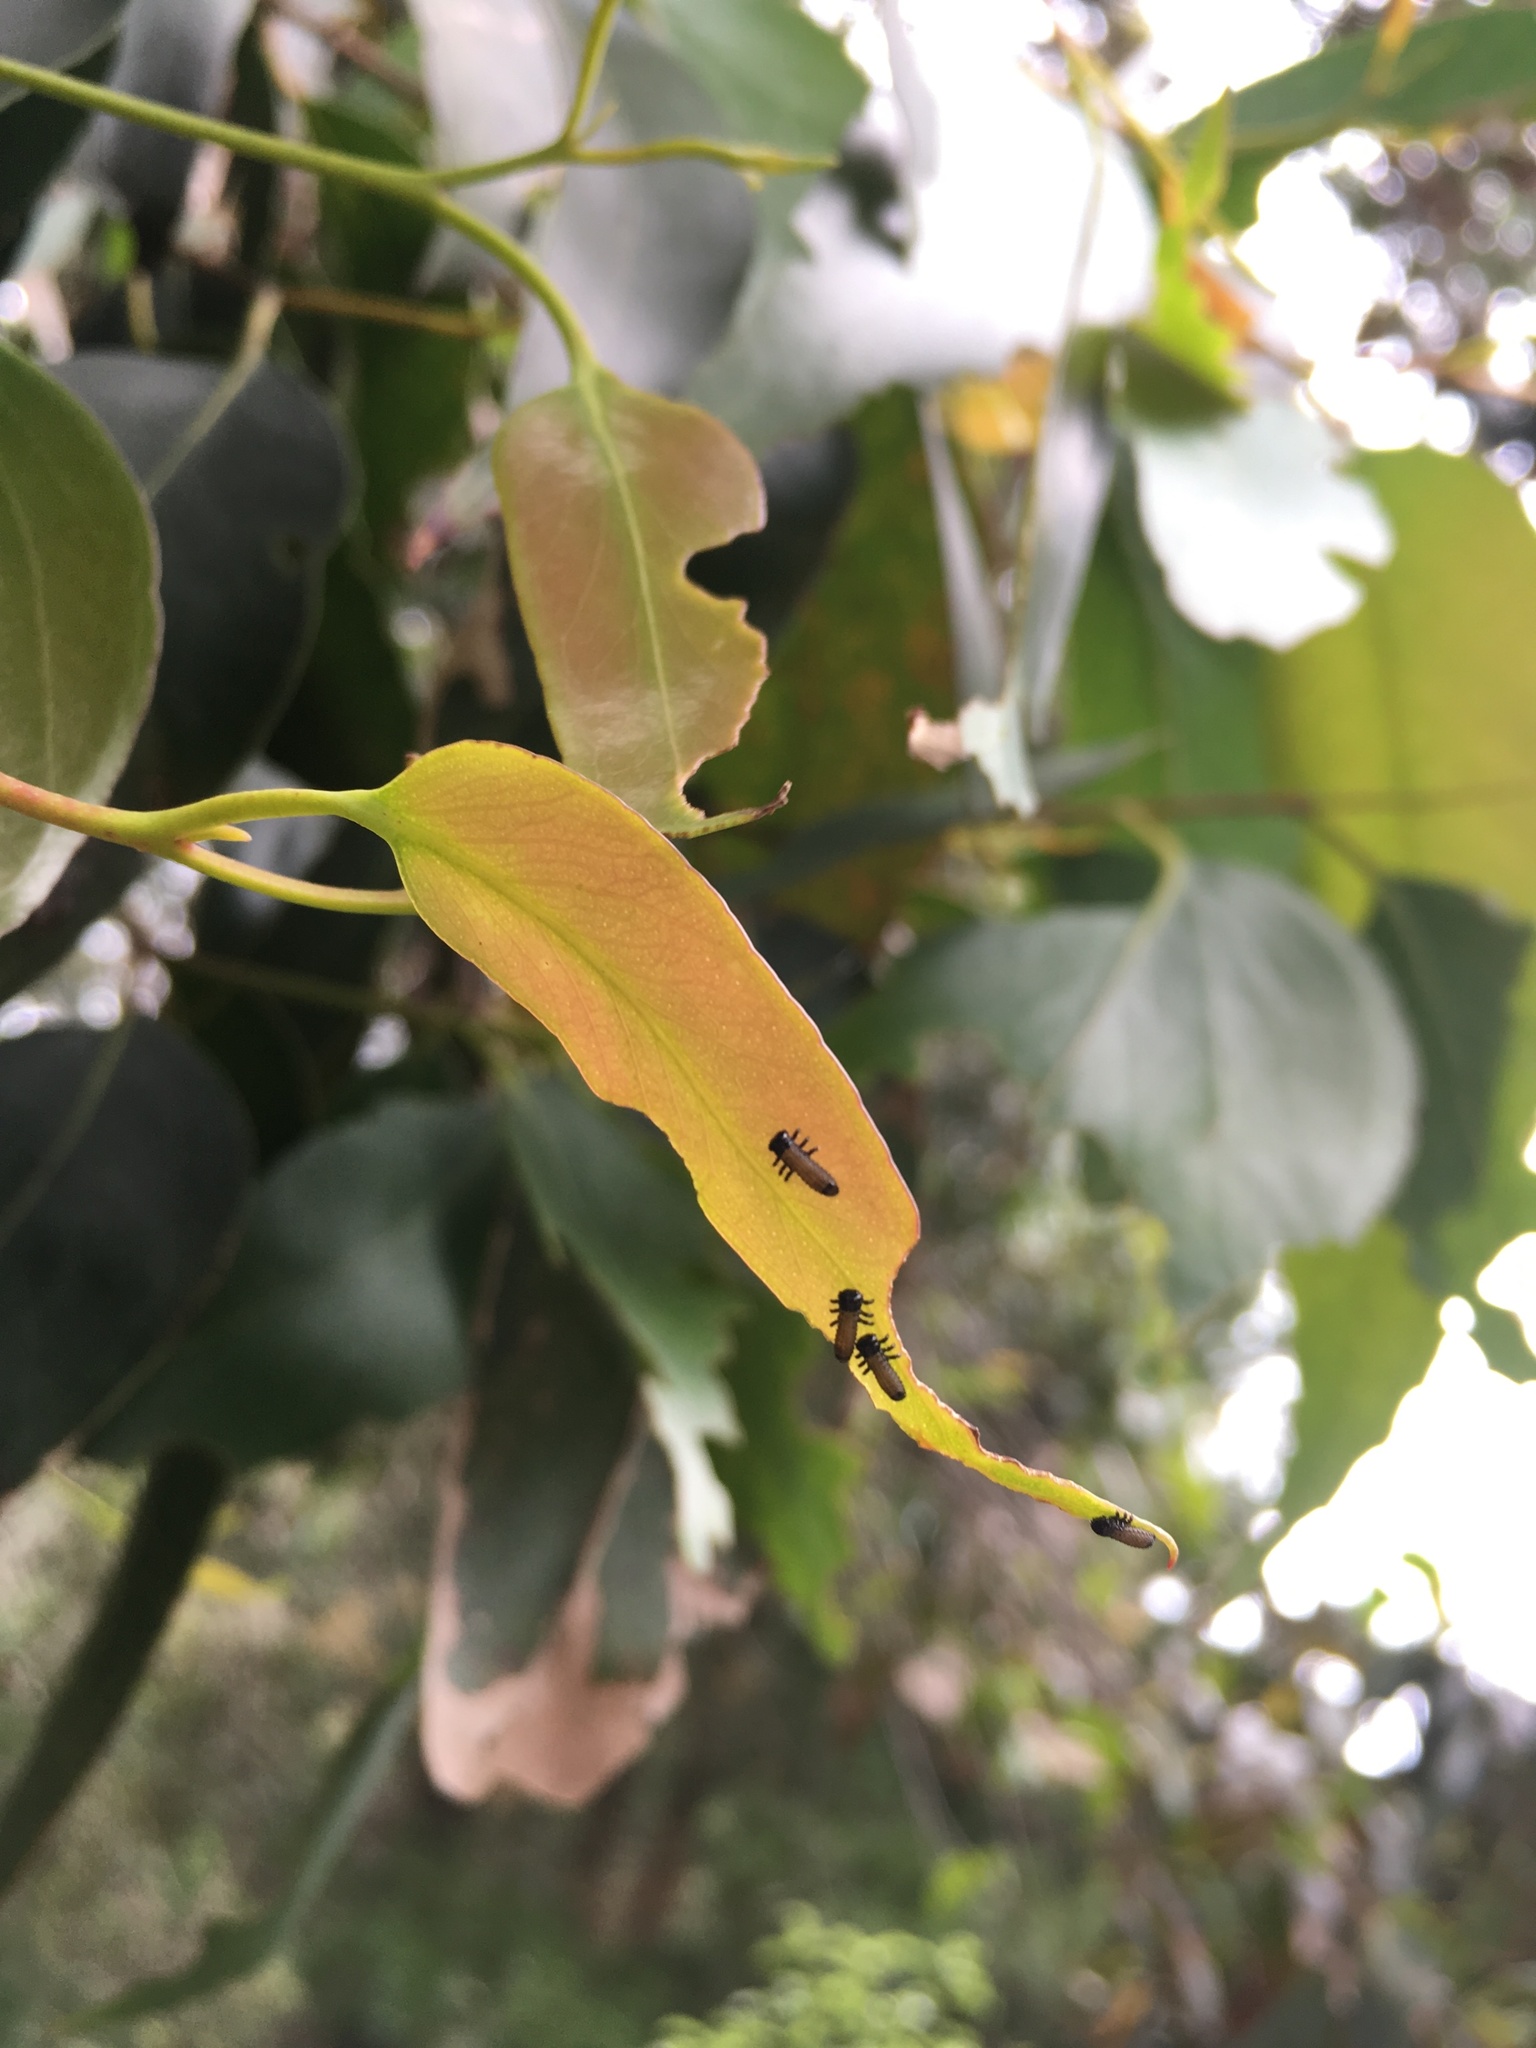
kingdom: Animalia
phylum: Arthropoda
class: Insecta
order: Coleoptera
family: Chrysomelidae
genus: Paropsis
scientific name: Paropsis charybdis
